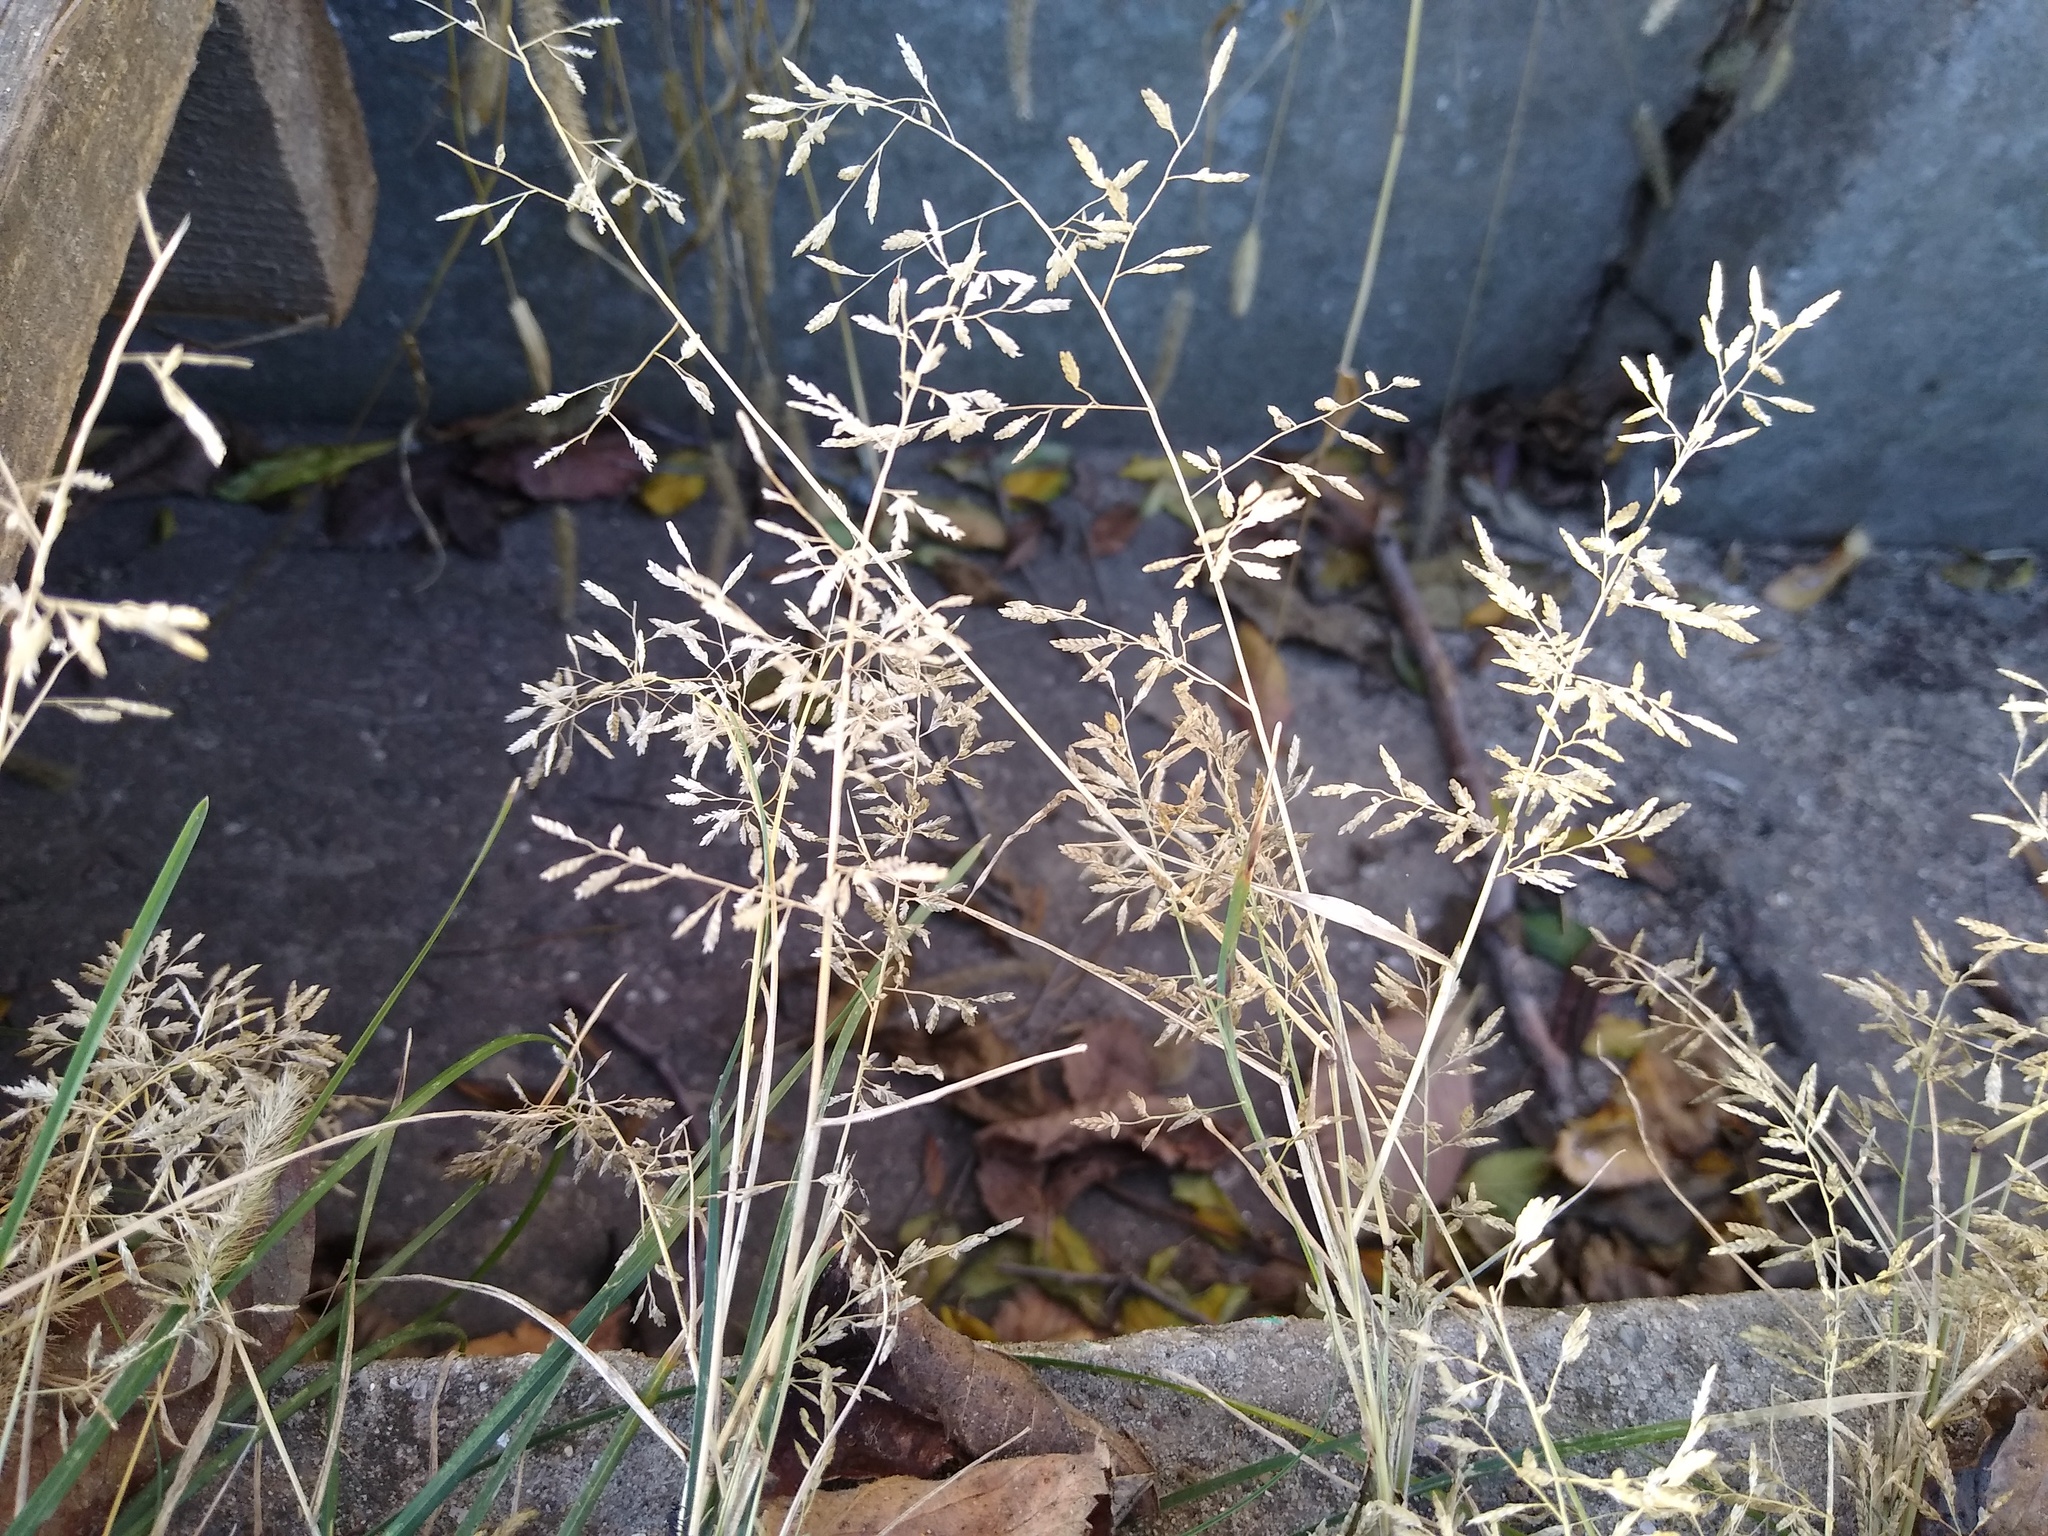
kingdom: Plantae
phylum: Tracheophyta
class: Liliopsida
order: Poales
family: Poaceae
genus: Eragrostis
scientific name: Eragrostis minor
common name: Small love-grass
